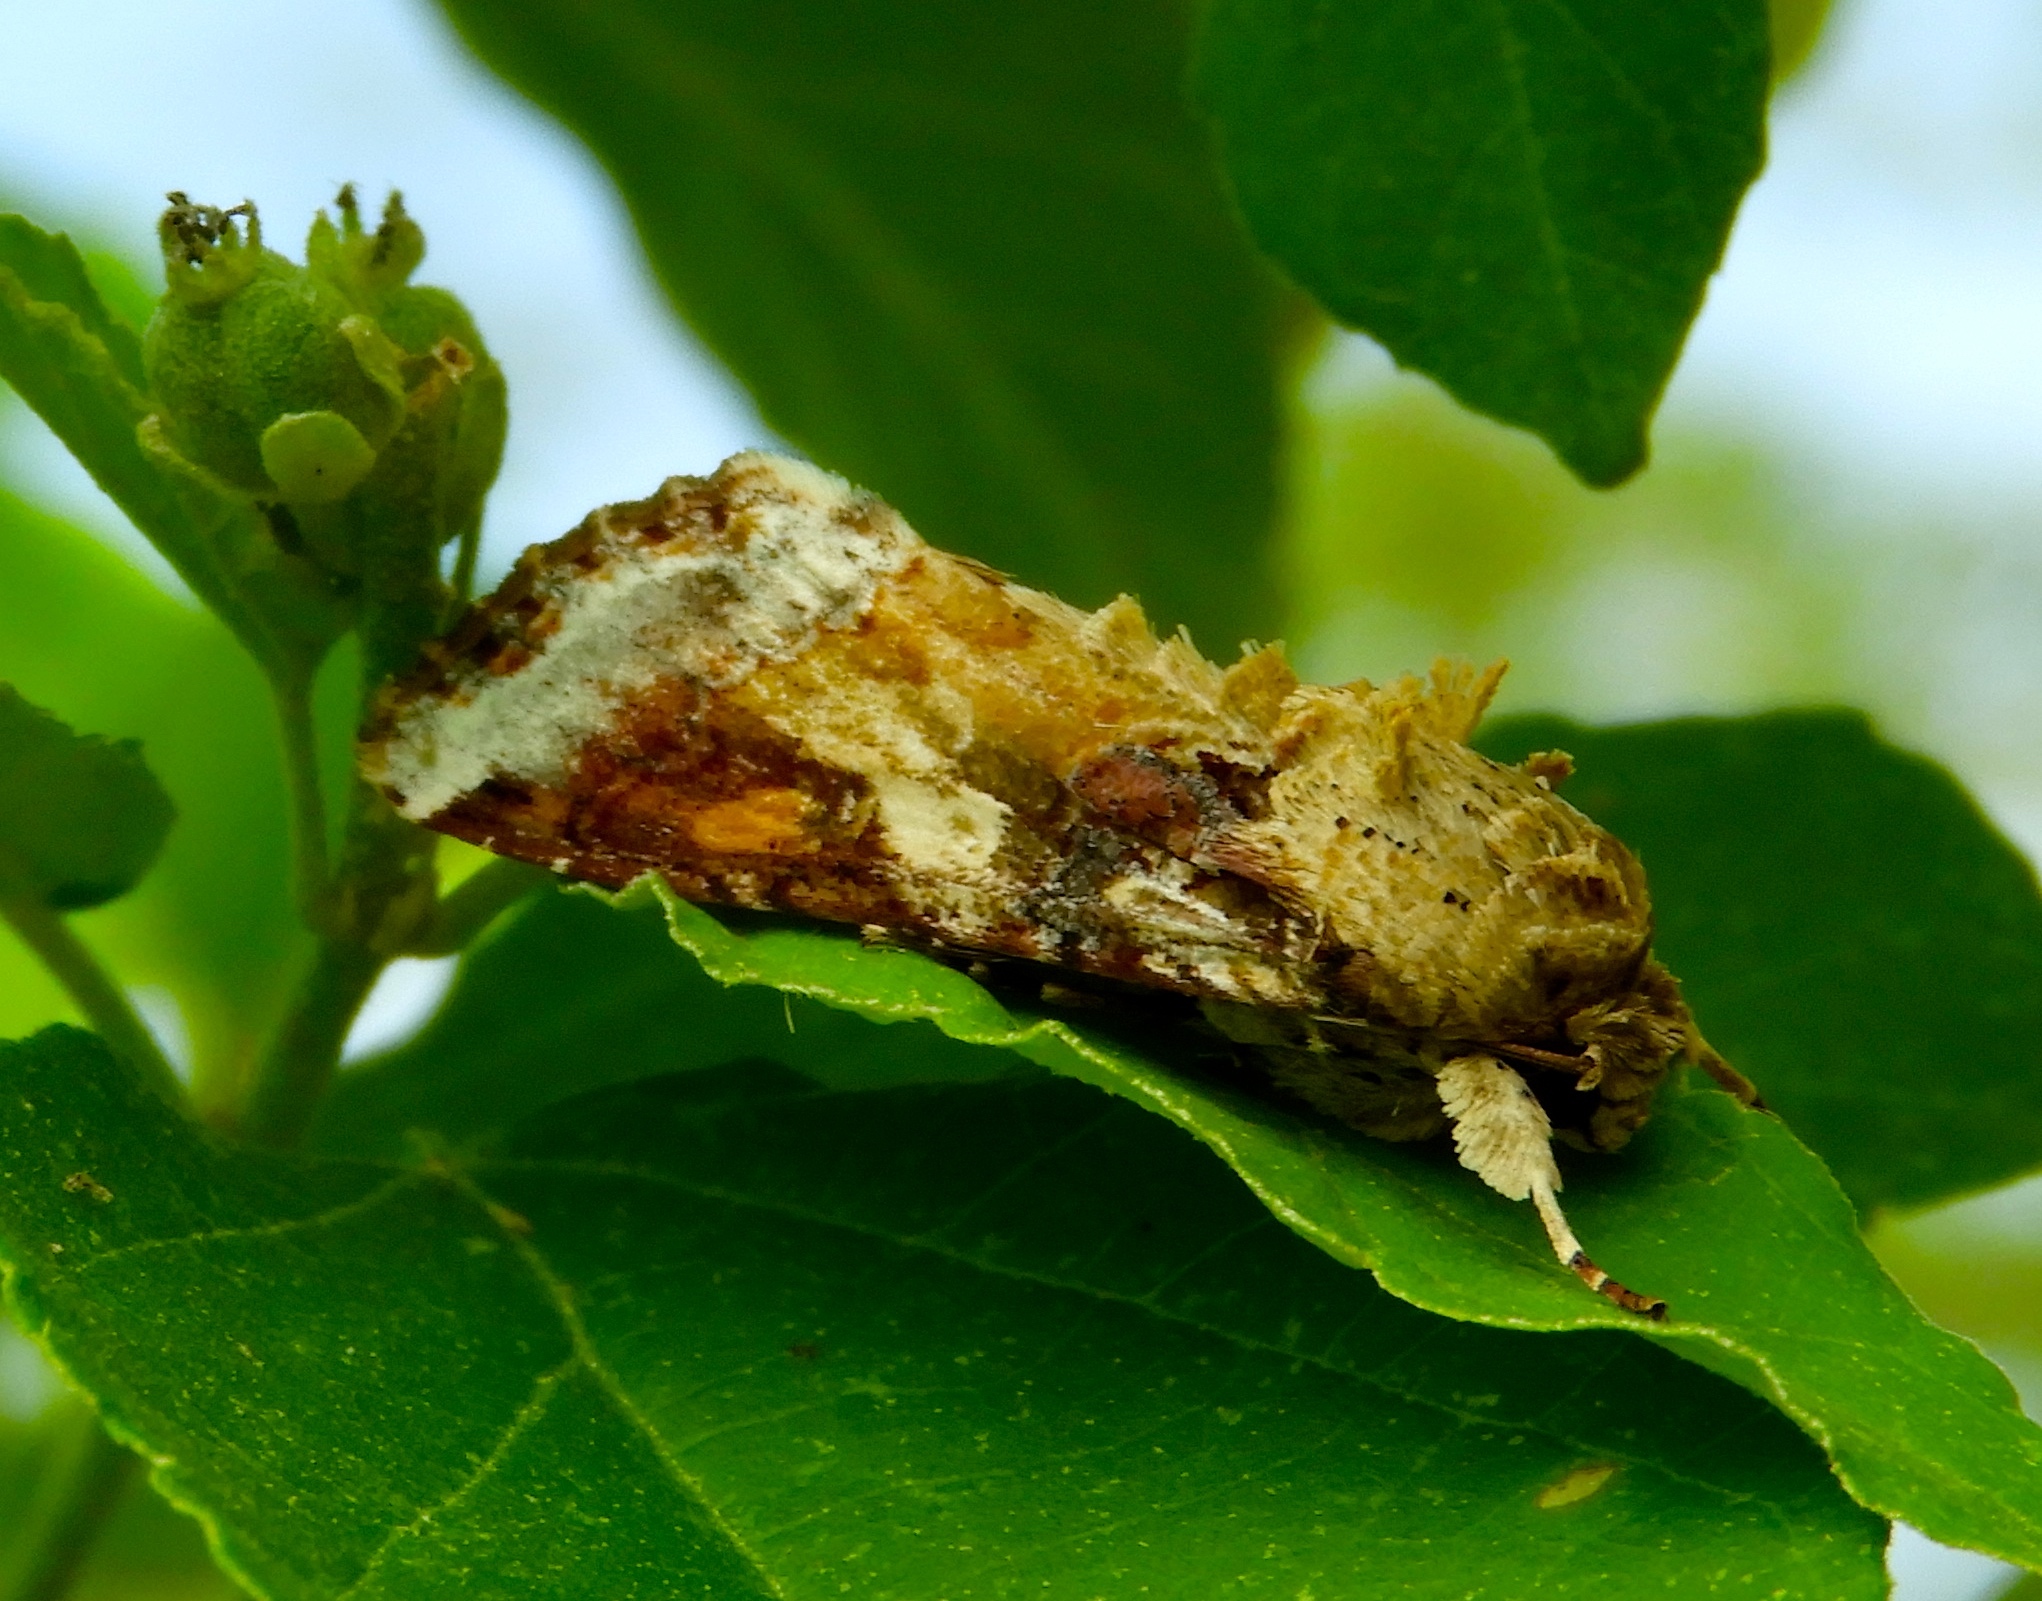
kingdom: Animalia
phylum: Arthropoda
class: Insecta
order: Lepidoptera
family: Noctuidae
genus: Spodoptera
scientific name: Spodoptera latifascia
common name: Velvet armyworm moth
